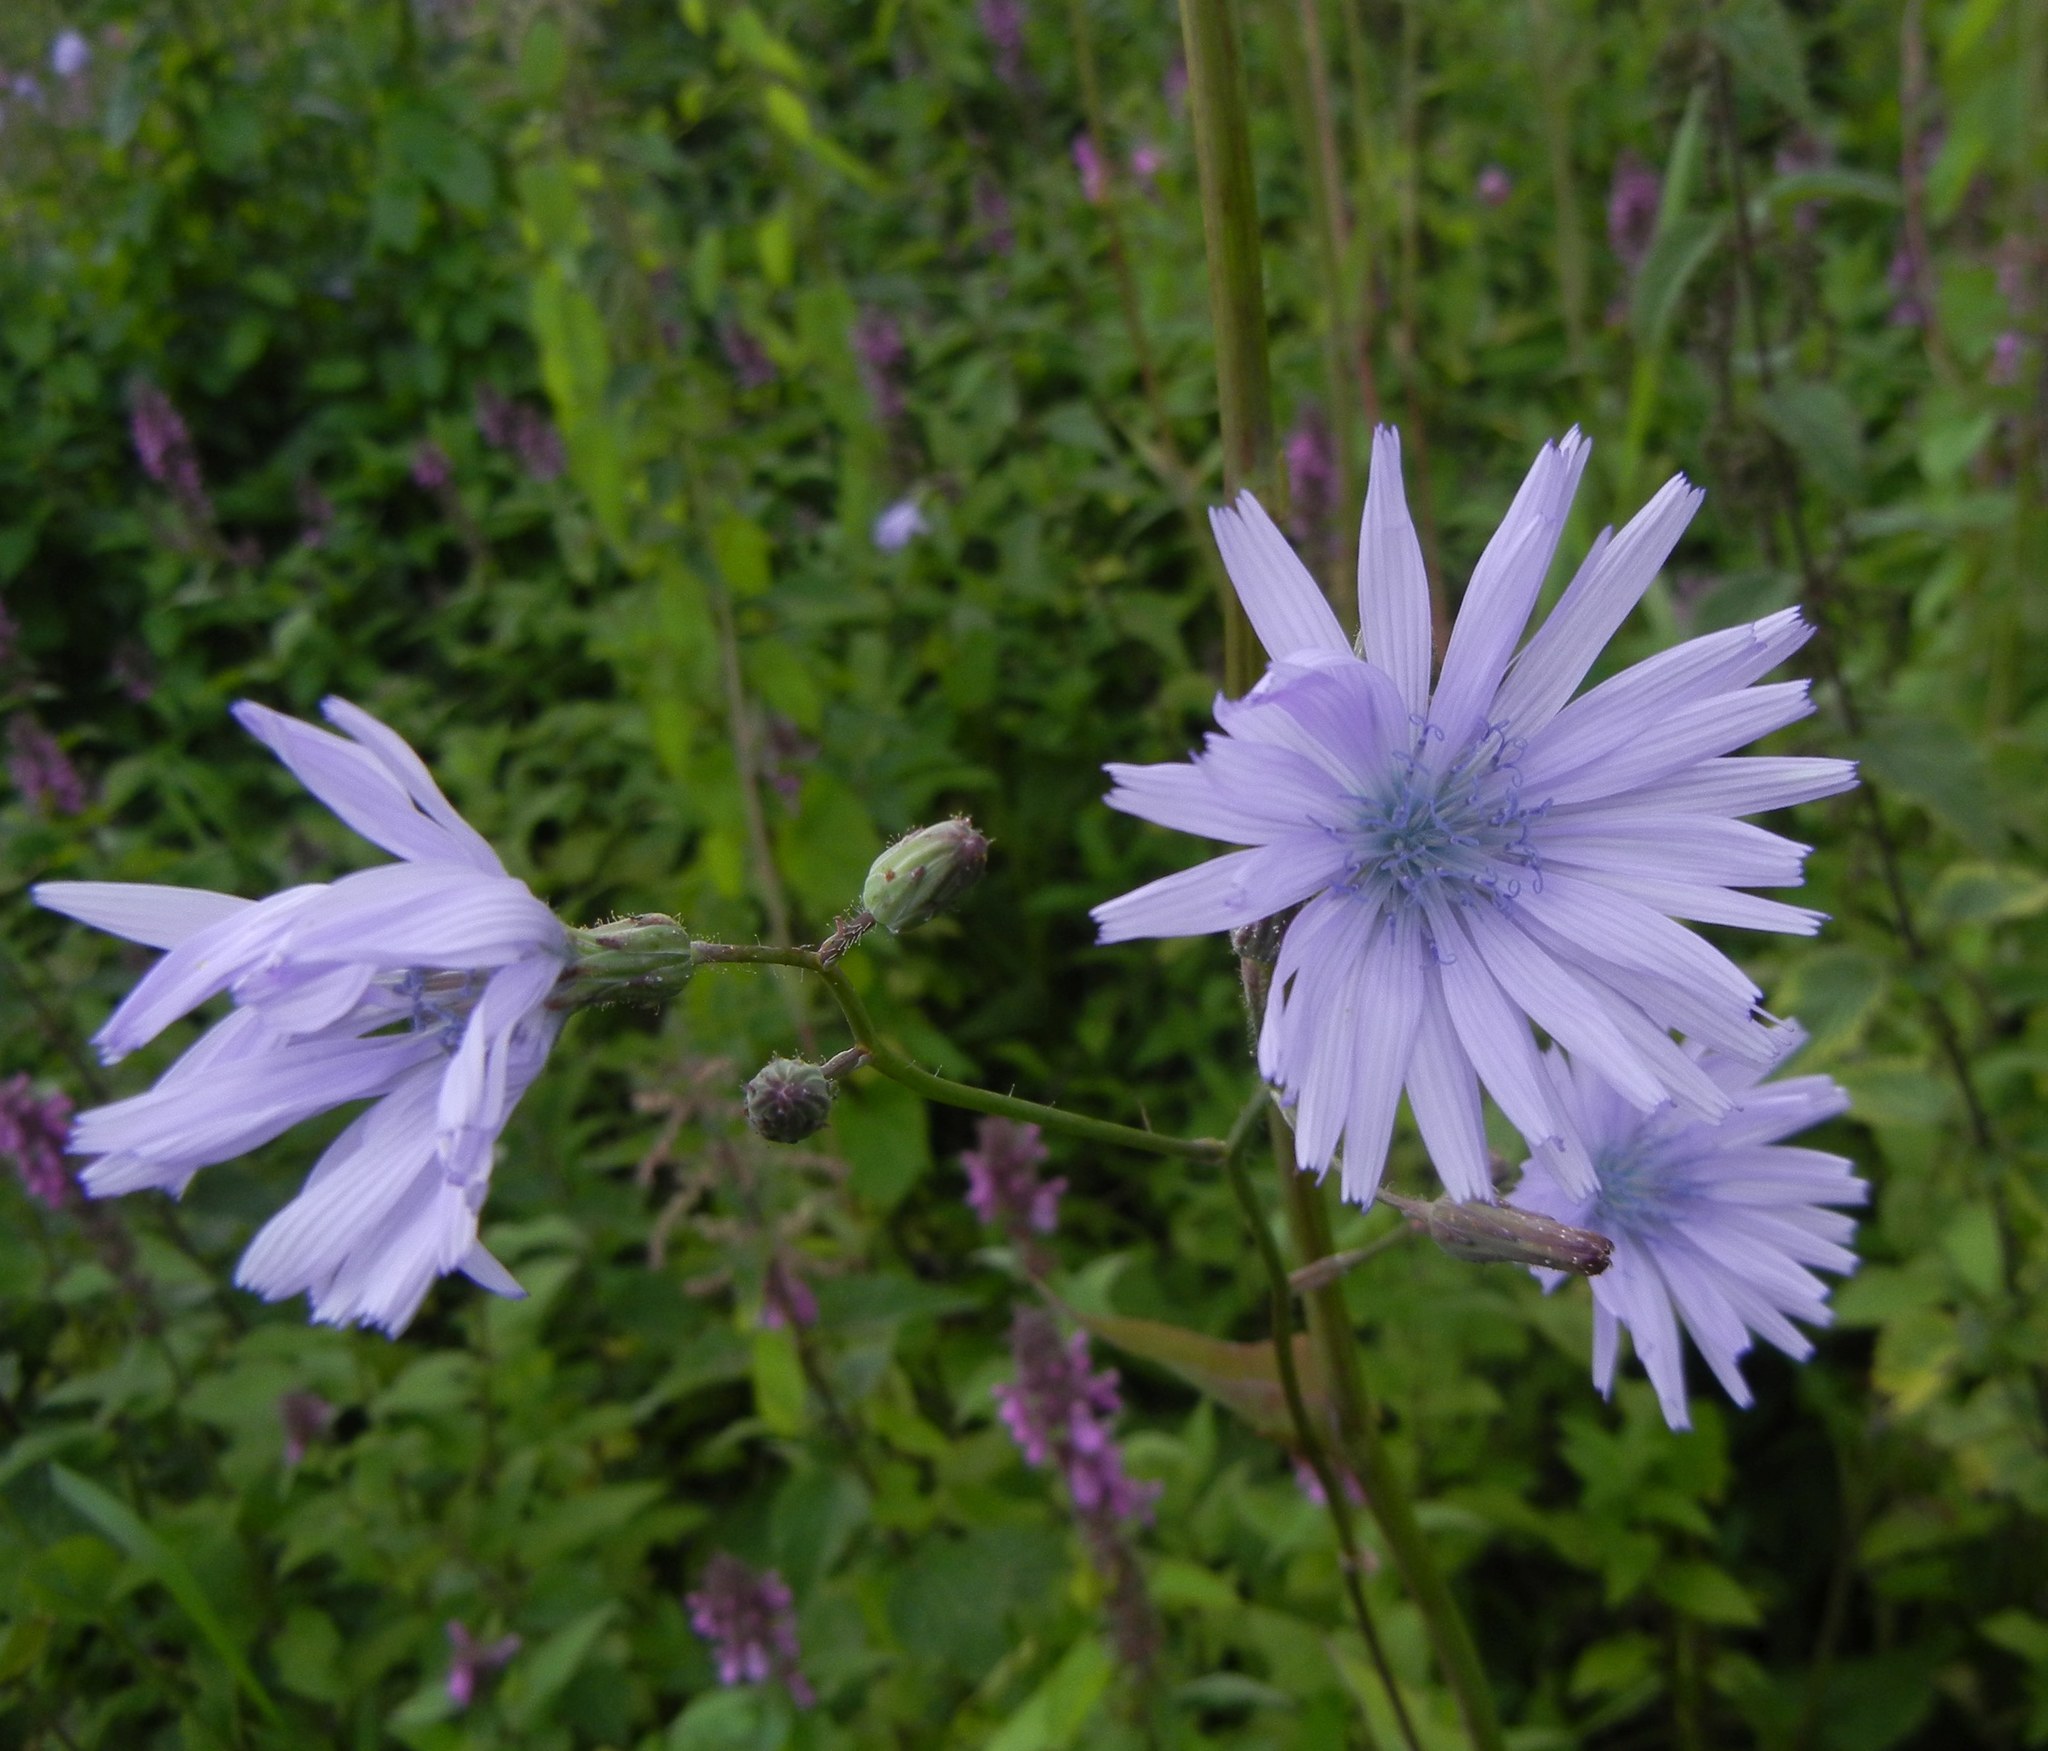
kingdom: Plantae
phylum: Tracheophyta
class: Magnoliopsida
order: Asterales
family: Asteraceae
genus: Lactuca
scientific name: Lactuca macrophylla
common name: Common blue-sow-thistle
